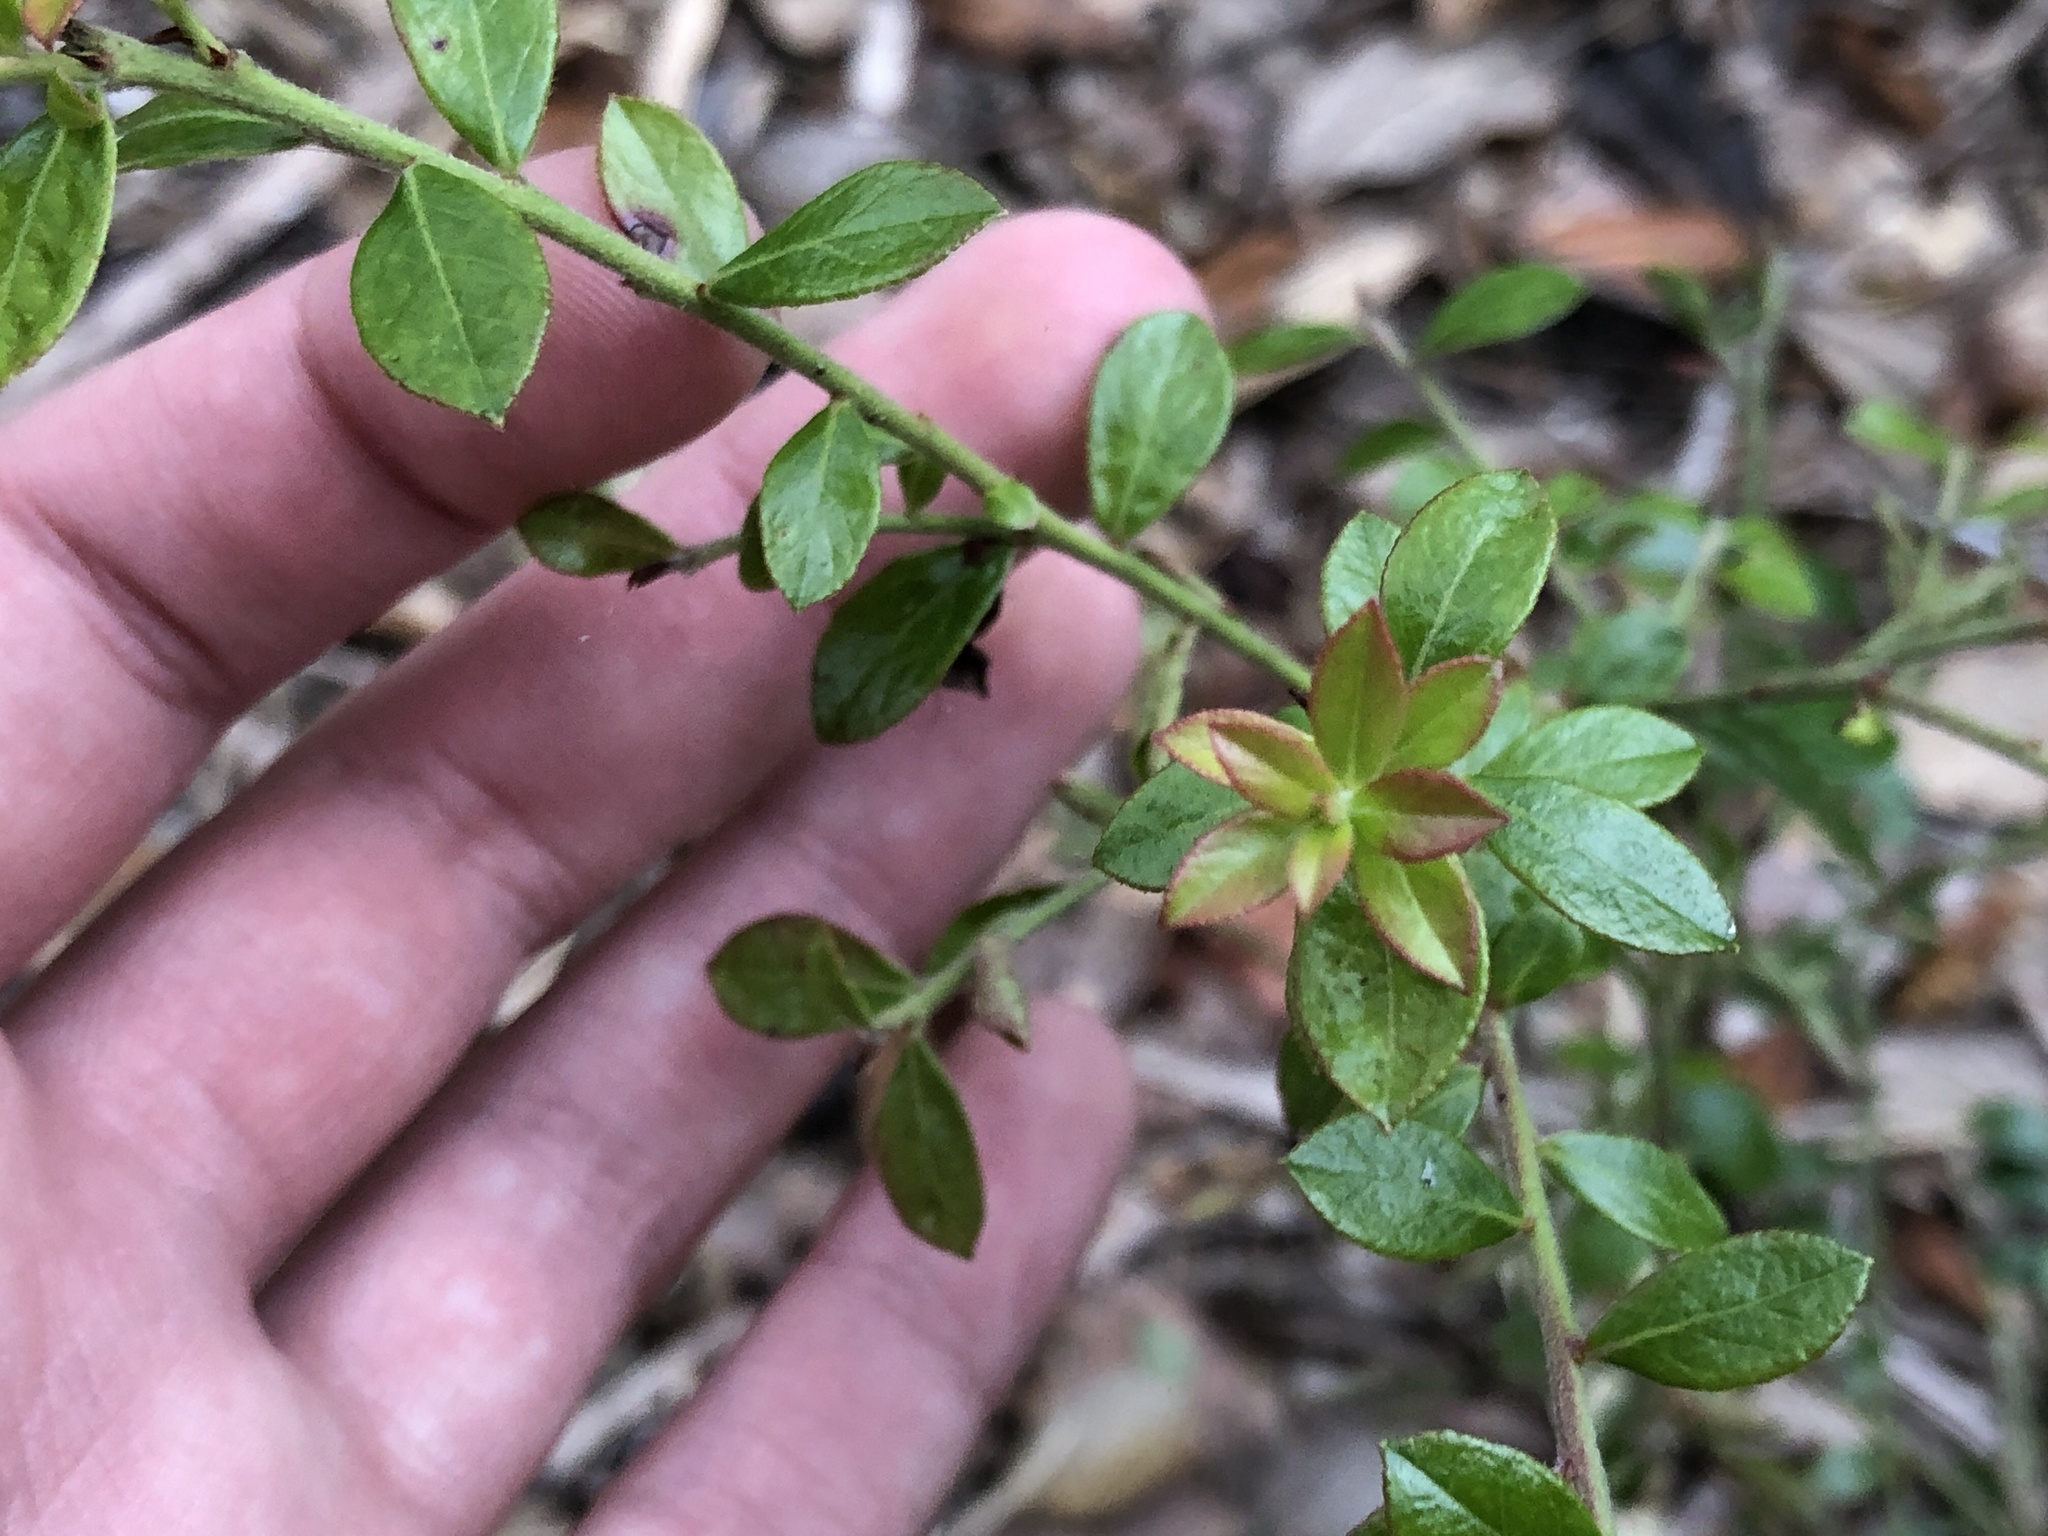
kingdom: Plantae
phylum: Tracheophyta
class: Magnoliopsida
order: Ericales
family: Ericaceae
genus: Vaccinium
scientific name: Vaccinium myrsinites
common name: Evergreen blueberry
